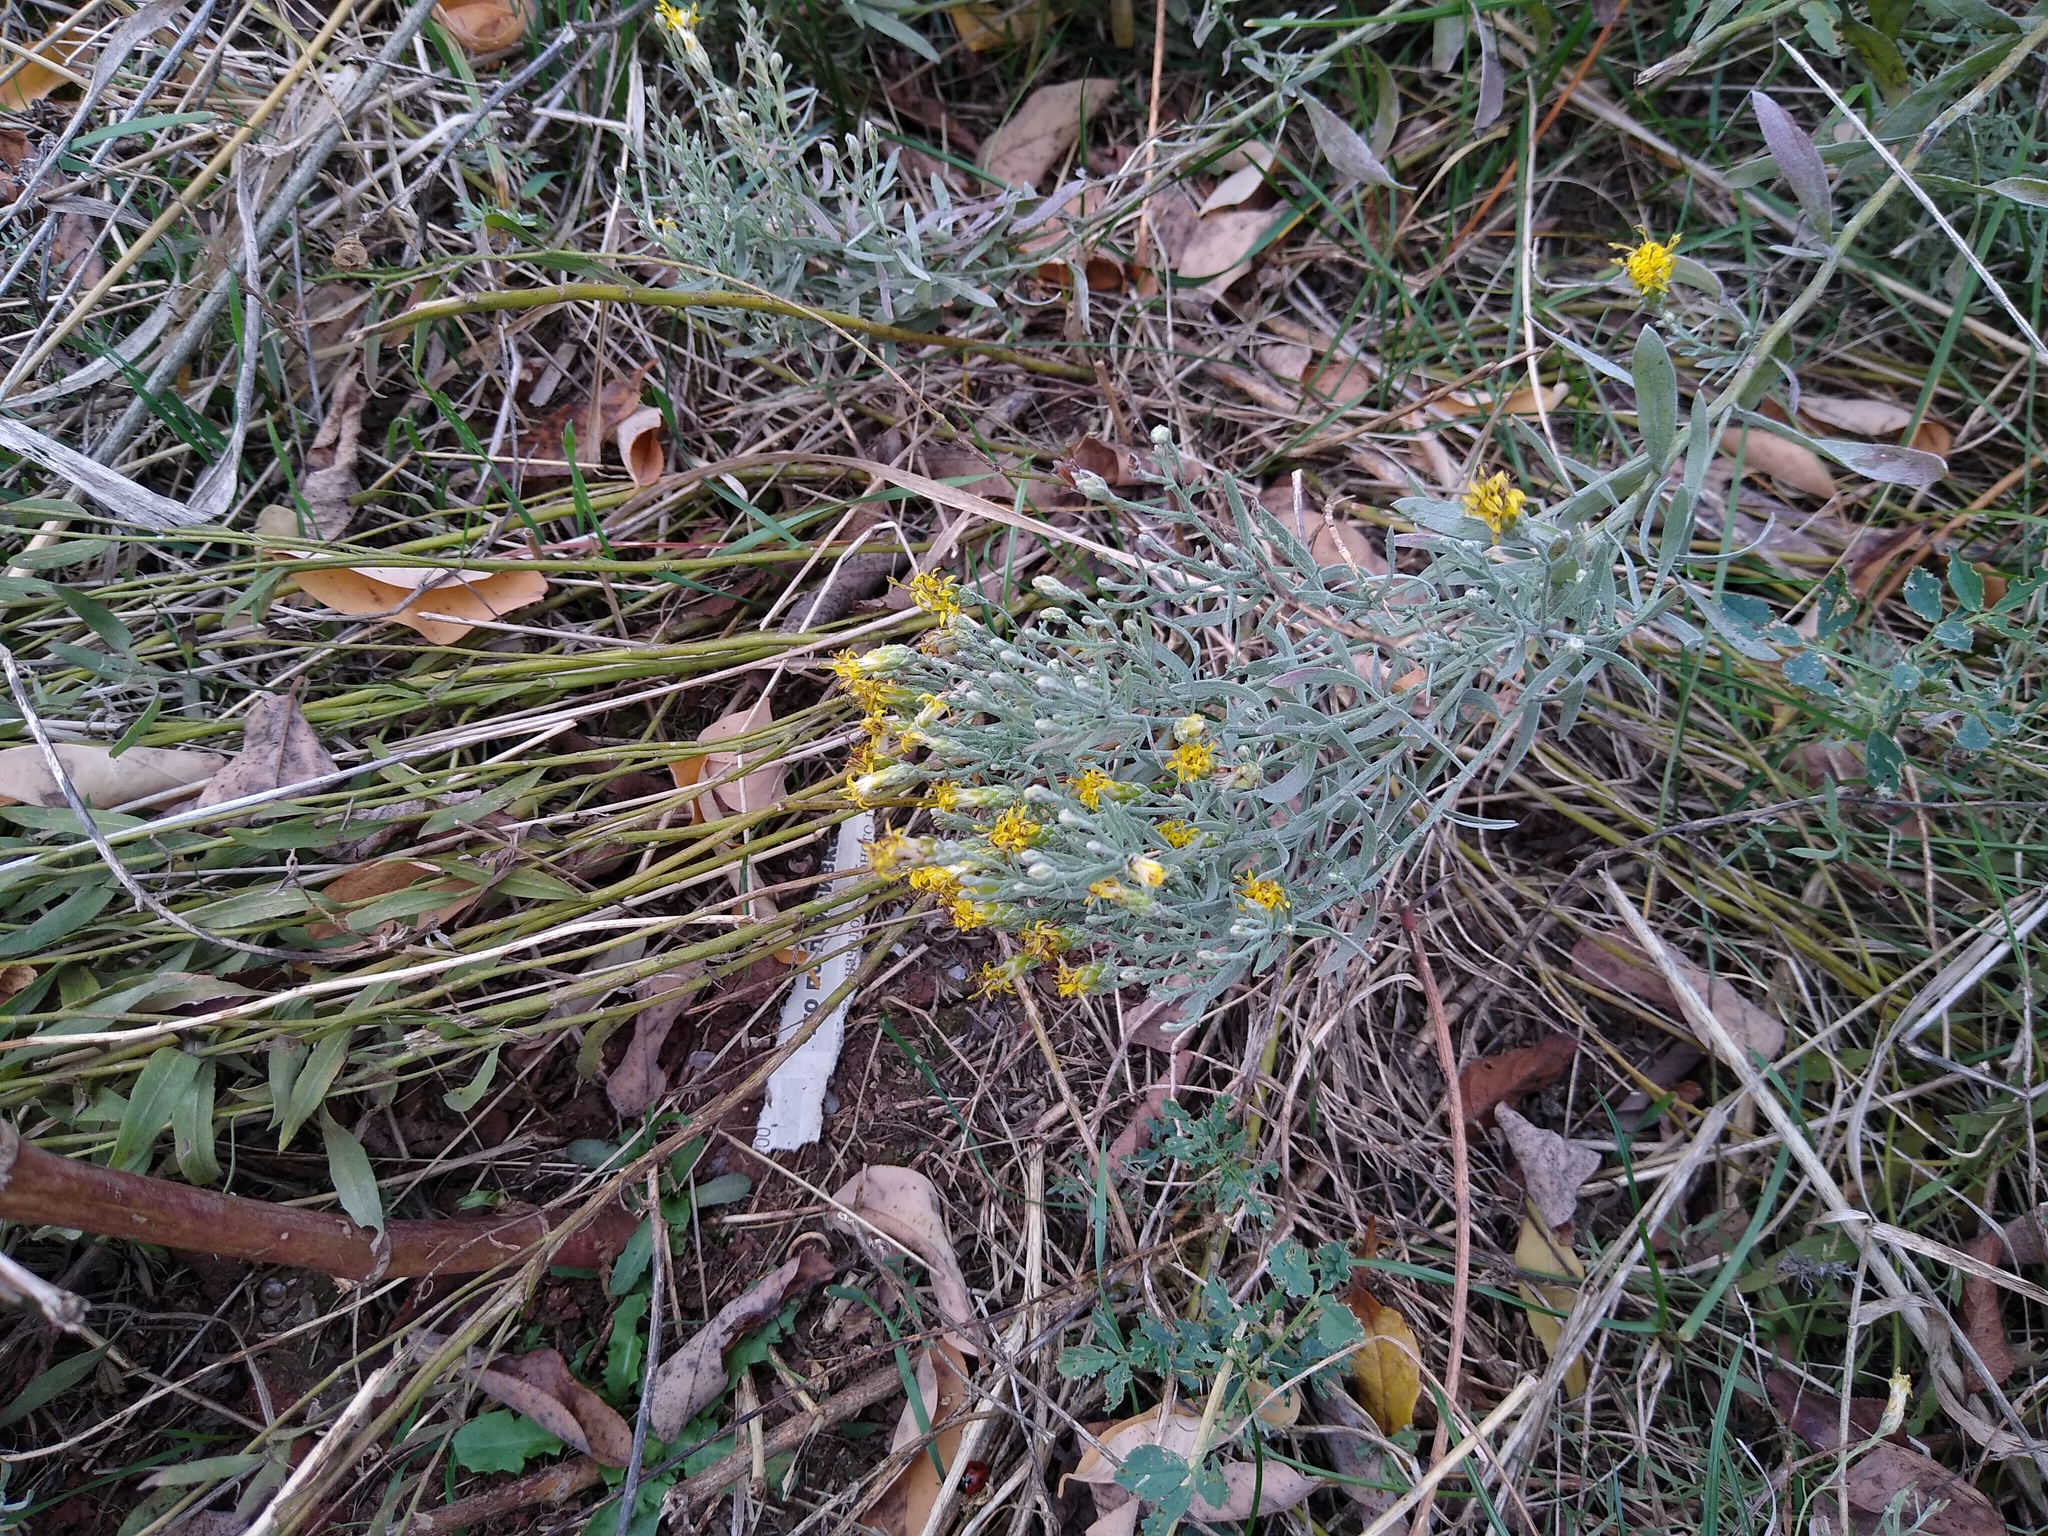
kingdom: Plantae
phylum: Tracheophyta
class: Magnoliopsida
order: Asterales
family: Asteraceae
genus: Galatella
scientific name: Galatella villosa
